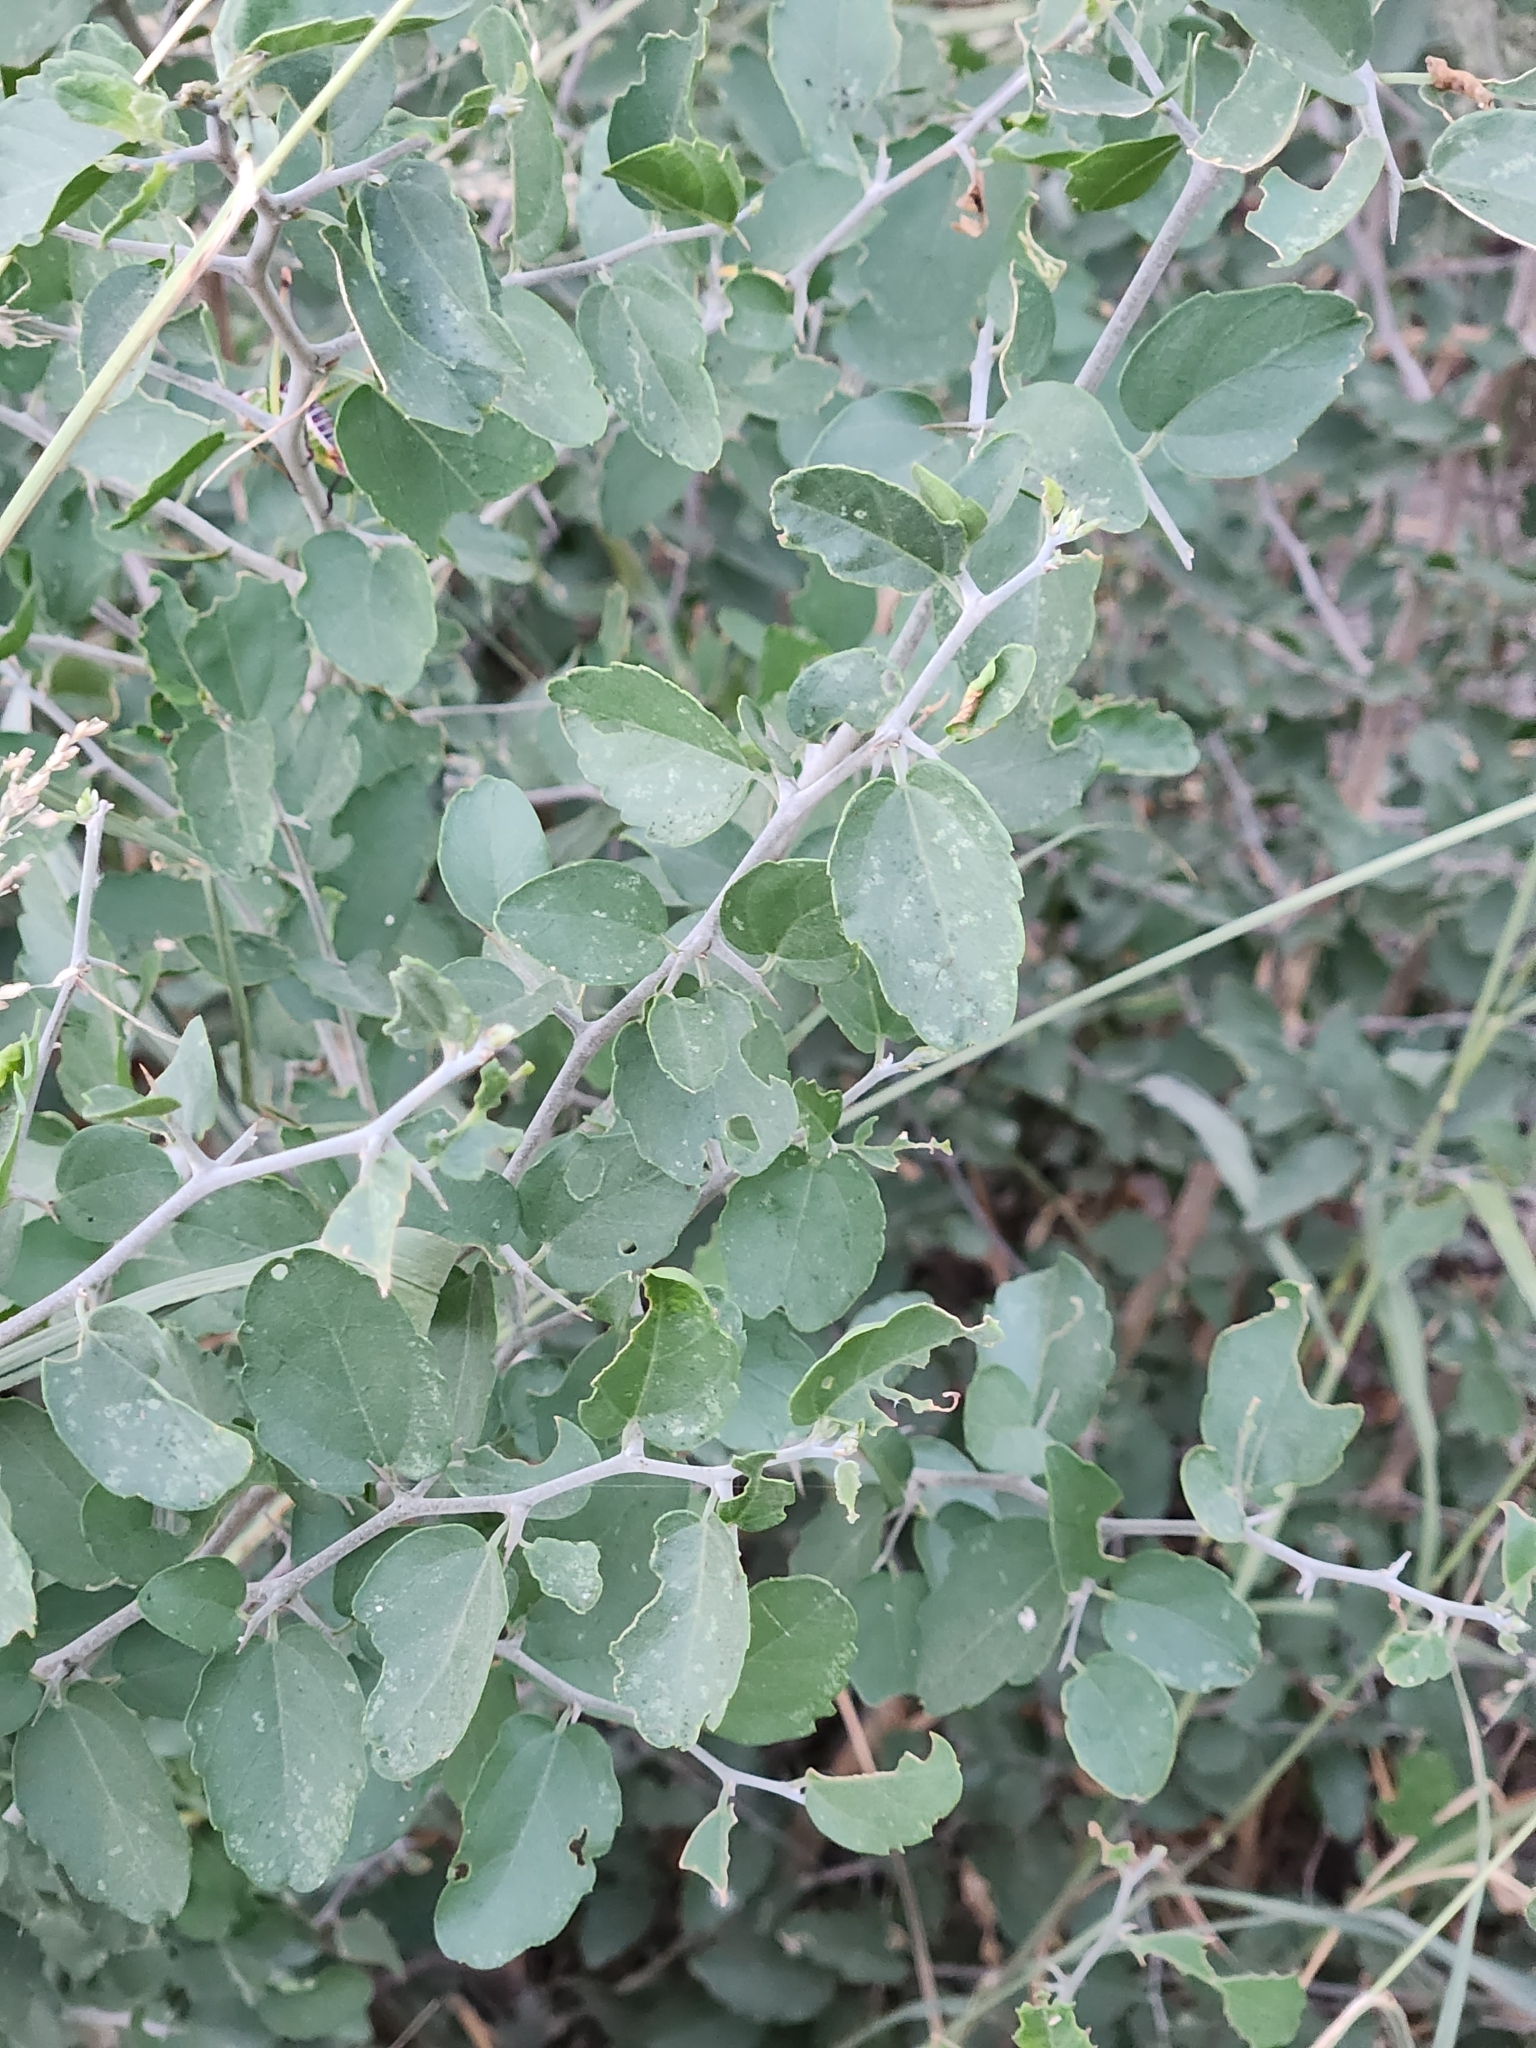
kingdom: Plantae
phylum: Tracheophyta
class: Magnoliopsida
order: Rosales
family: Cannabaceae
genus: Celtis
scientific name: Celtis pallida
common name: Desert hackberry
